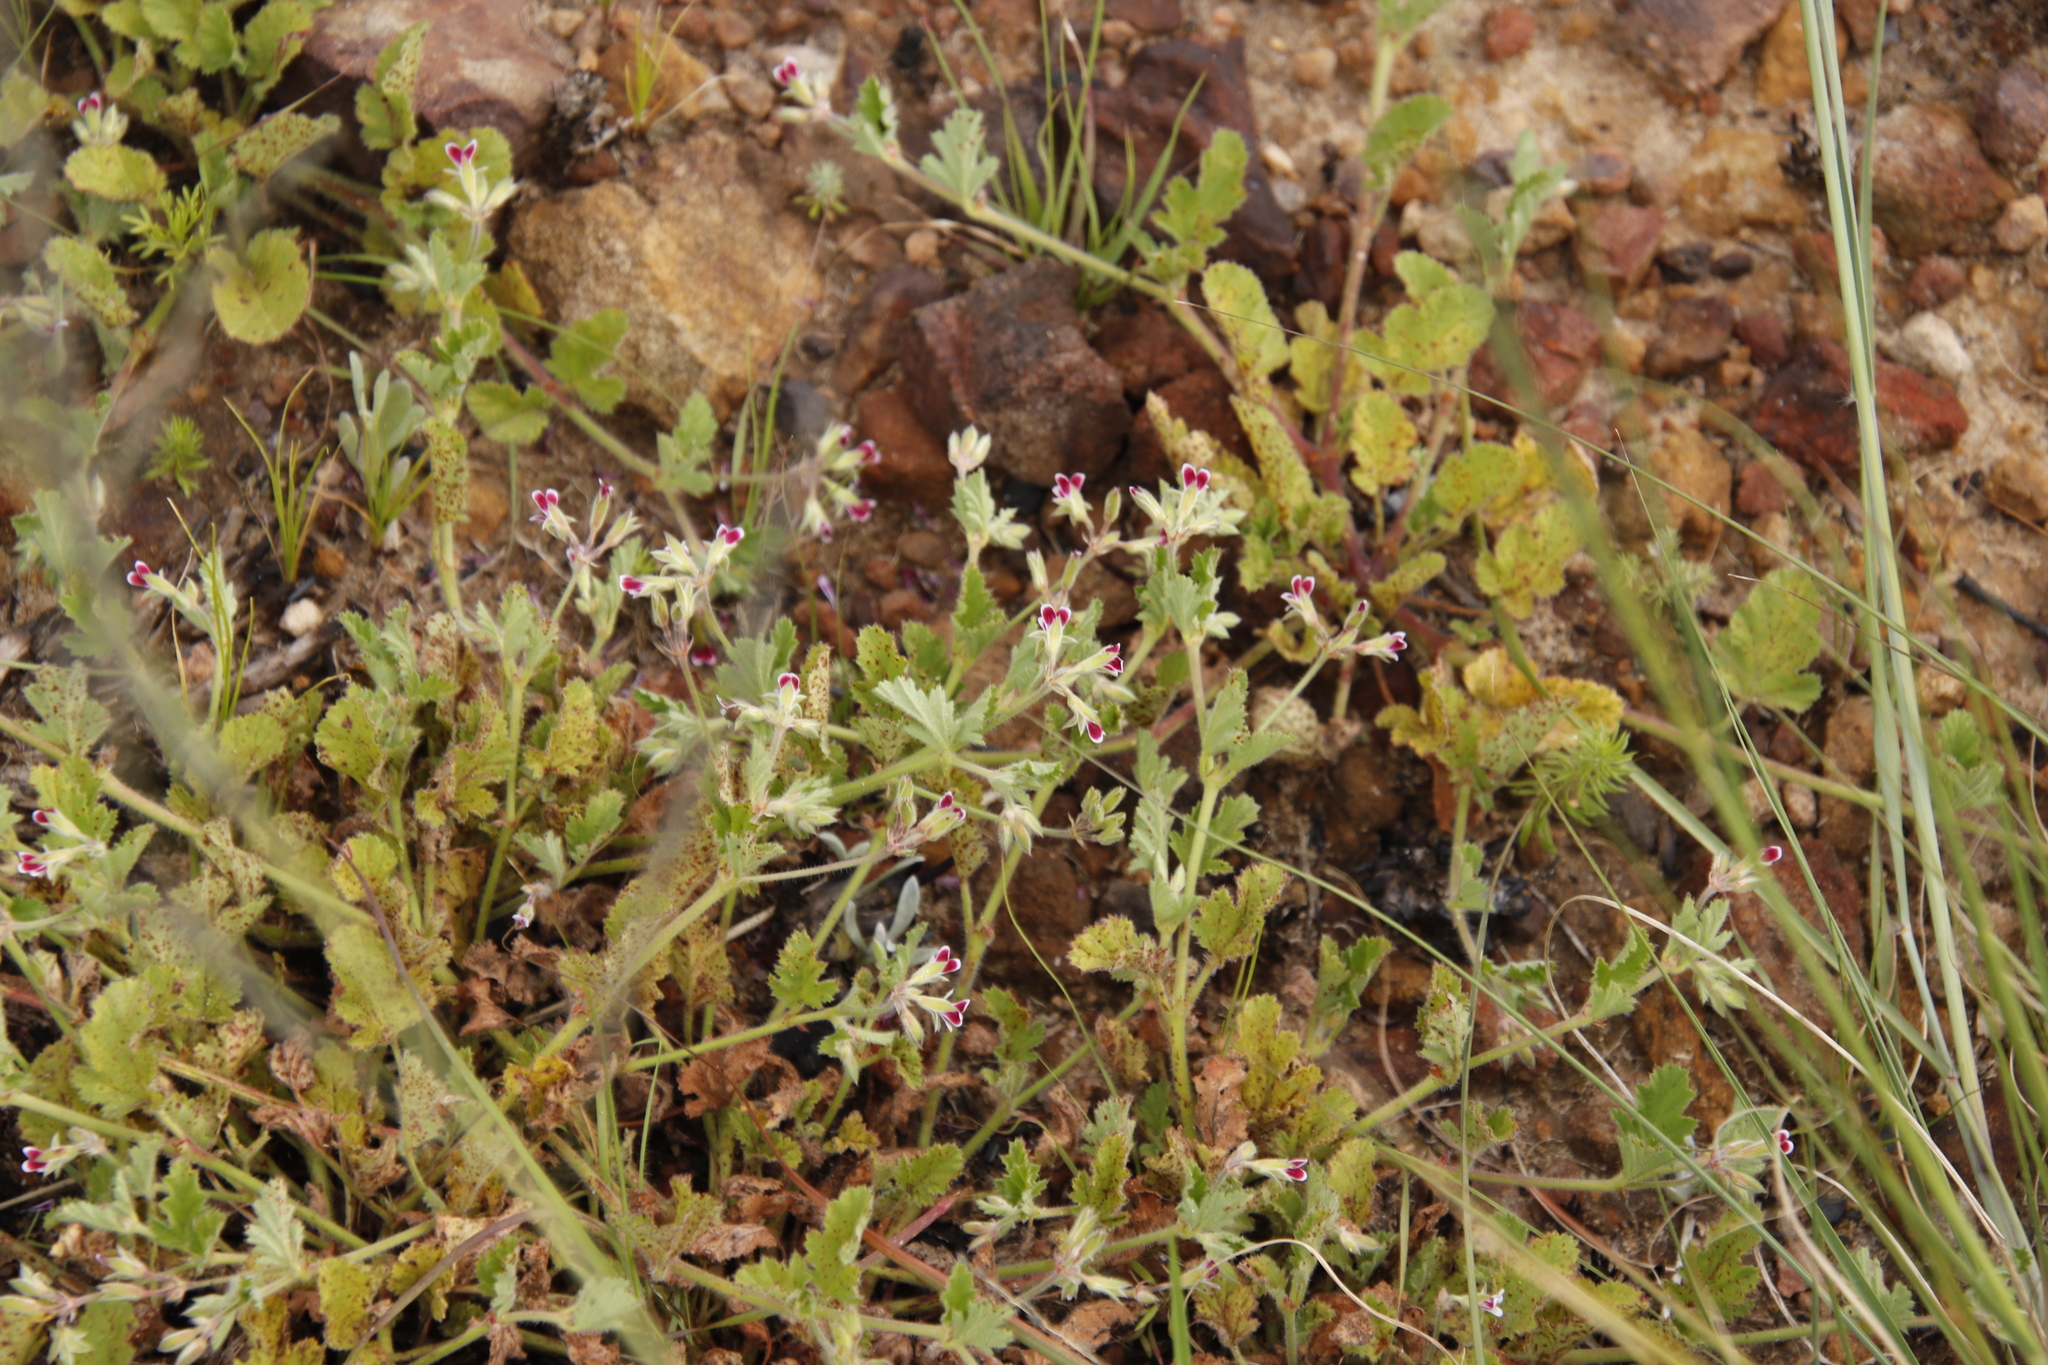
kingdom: Plantae
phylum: Tracheophyta
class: Magnoliopsida
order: Geraniales
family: Geraniaceae
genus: Pelargonium
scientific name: Pelargonium althaeoides
